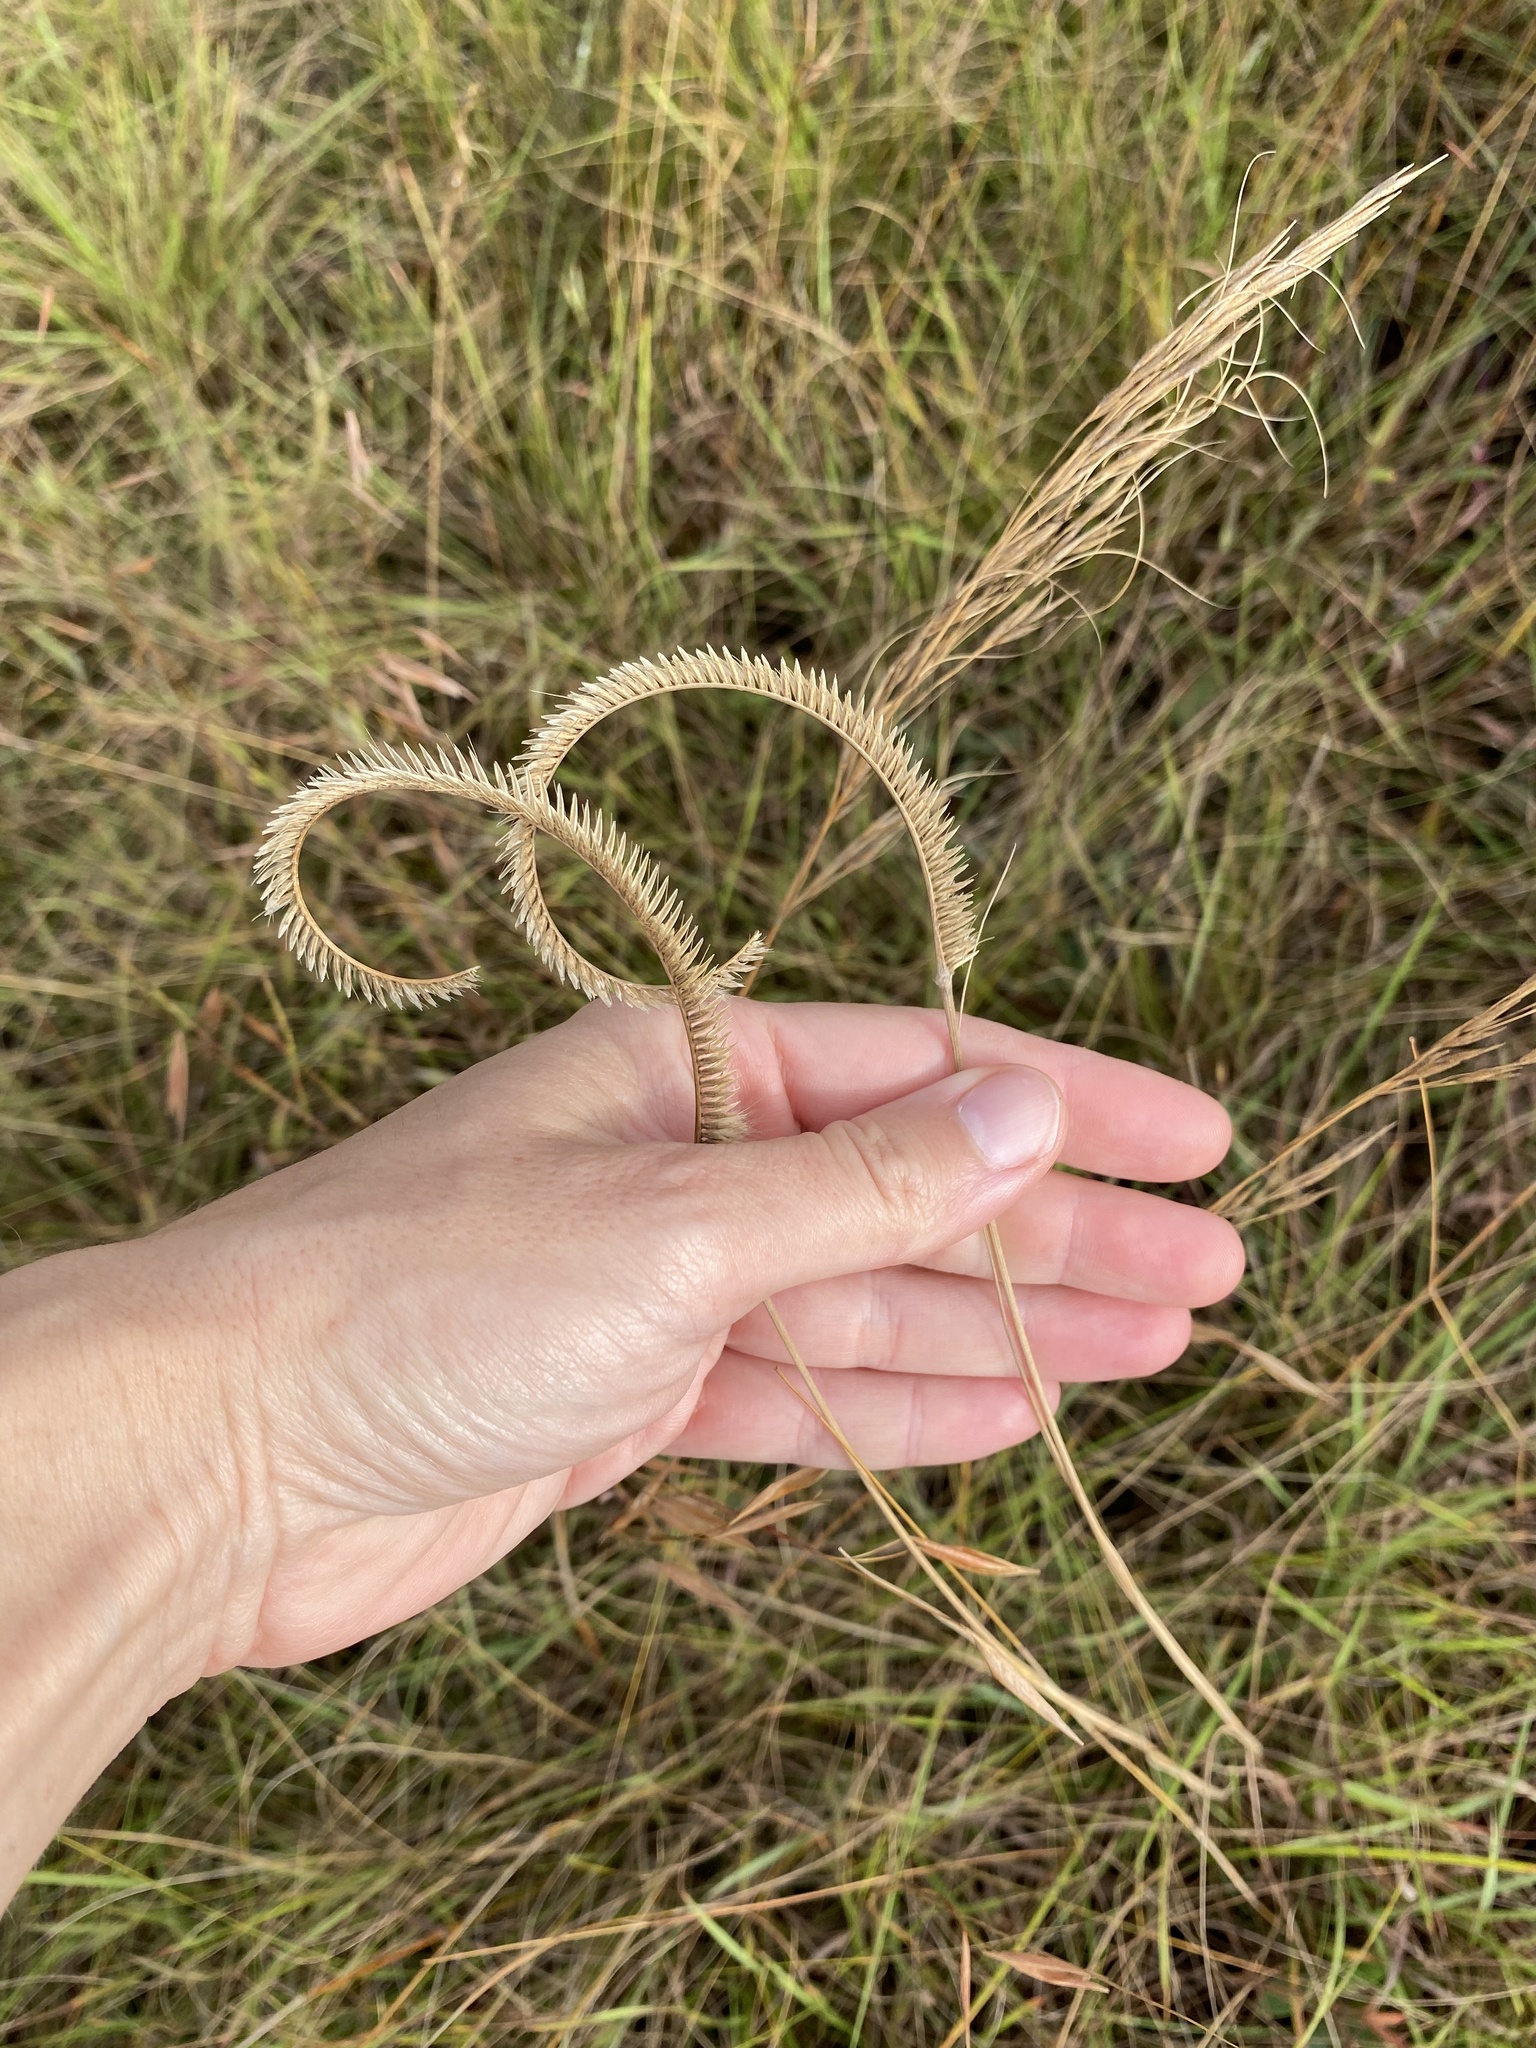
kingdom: Plantae
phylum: Tracheophyta
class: Liliopsida
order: Poales
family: Poaceae
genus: Ctenium
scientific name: Ctenium concinnum
